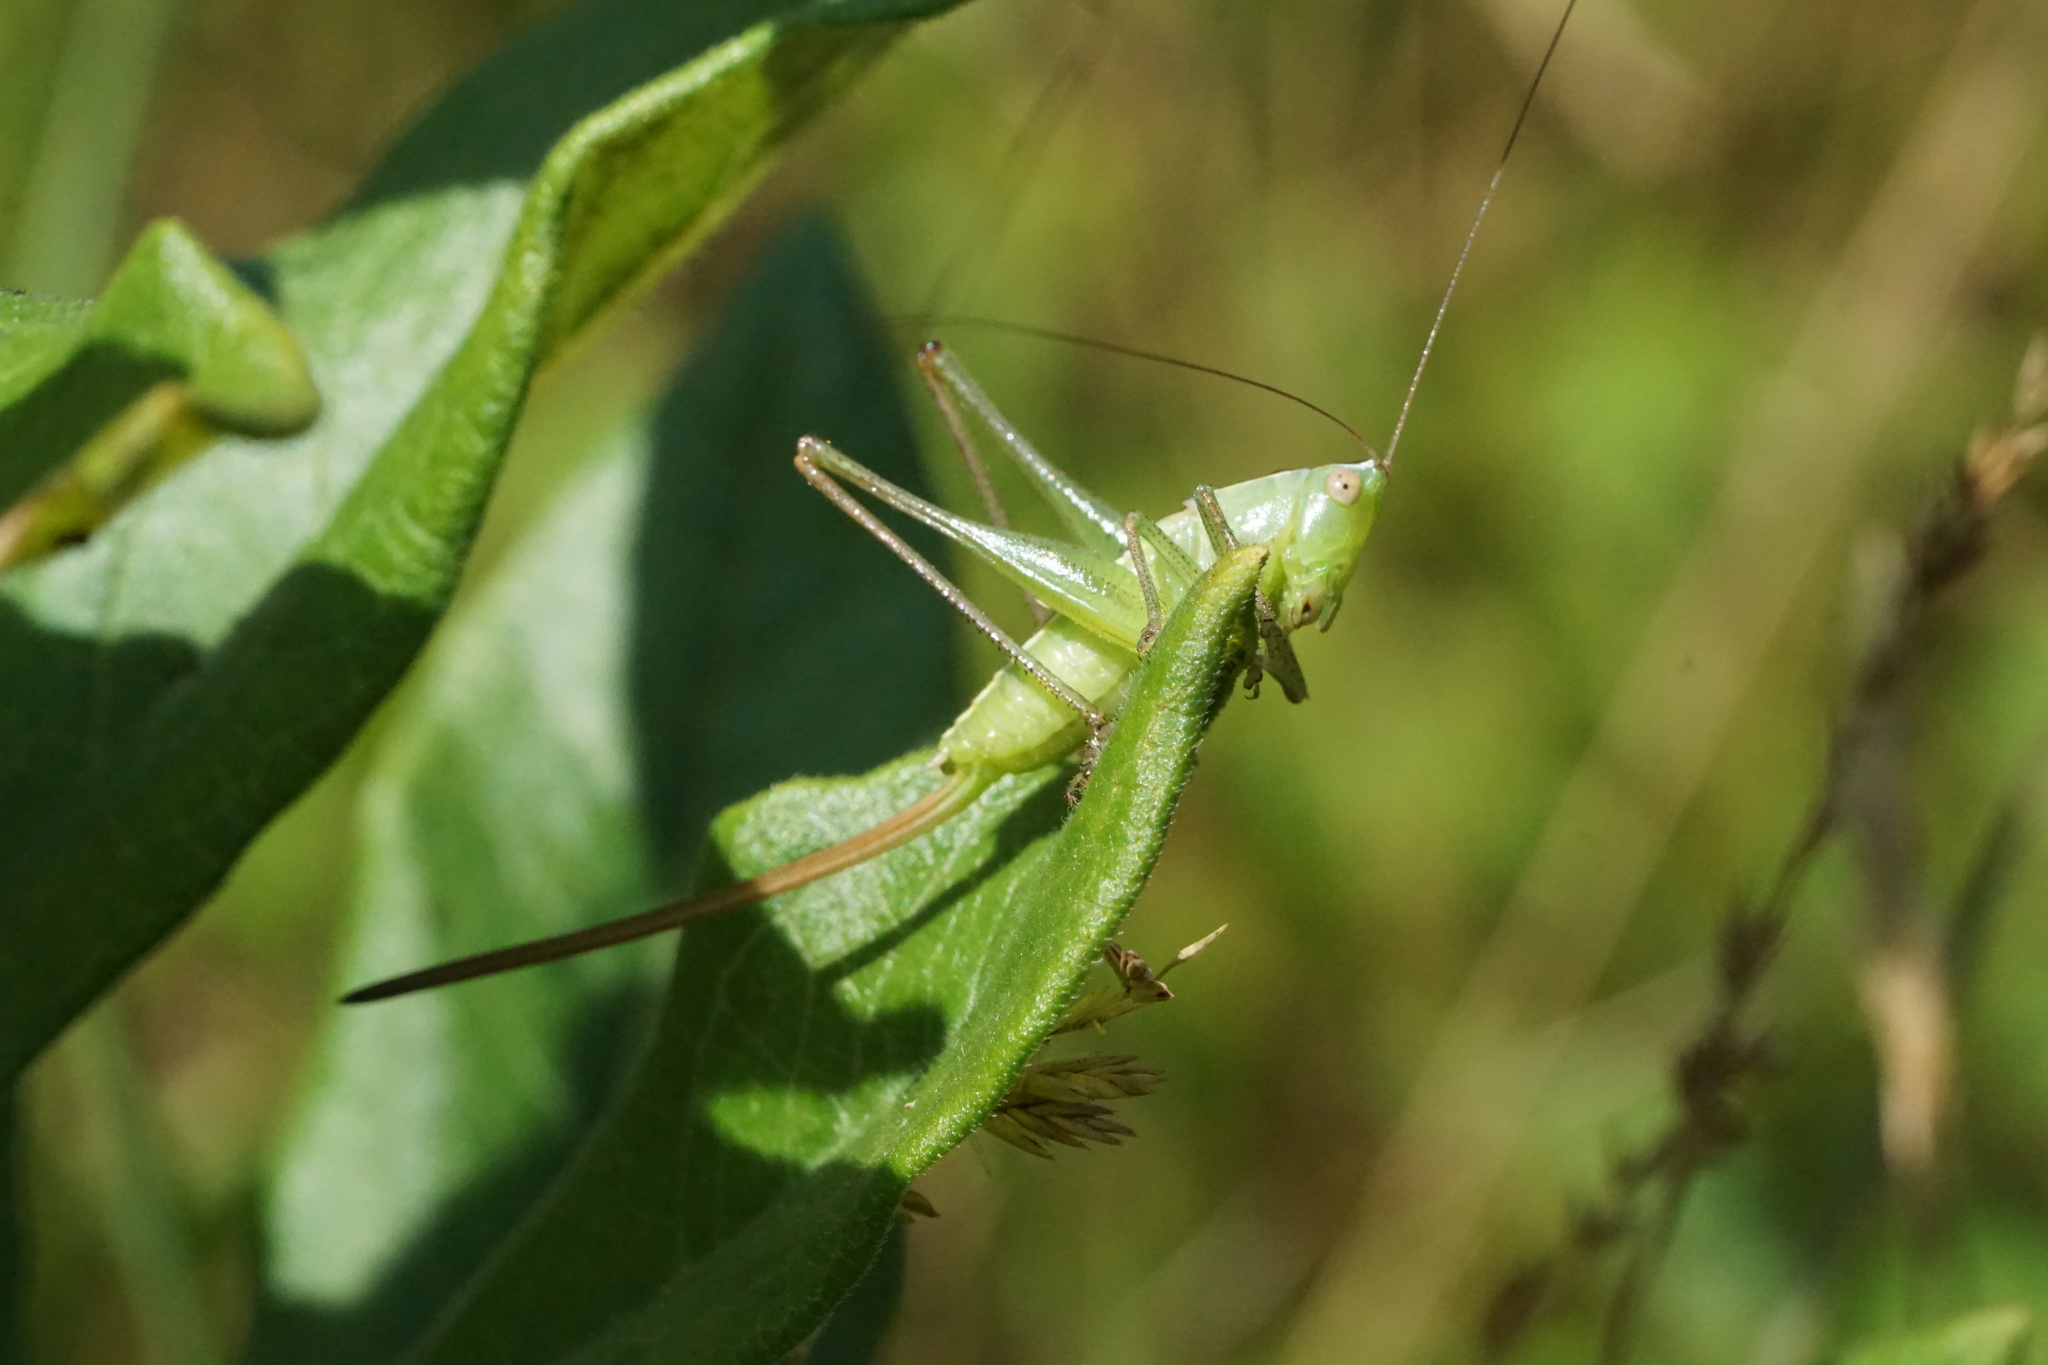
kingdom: Animalia
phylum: Arthropoda
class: Insecta
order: Orthoptera
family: Tettigoniidae
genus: Conocephalus
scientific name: Conocephalus strictus
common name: Straight-lanced katydid
